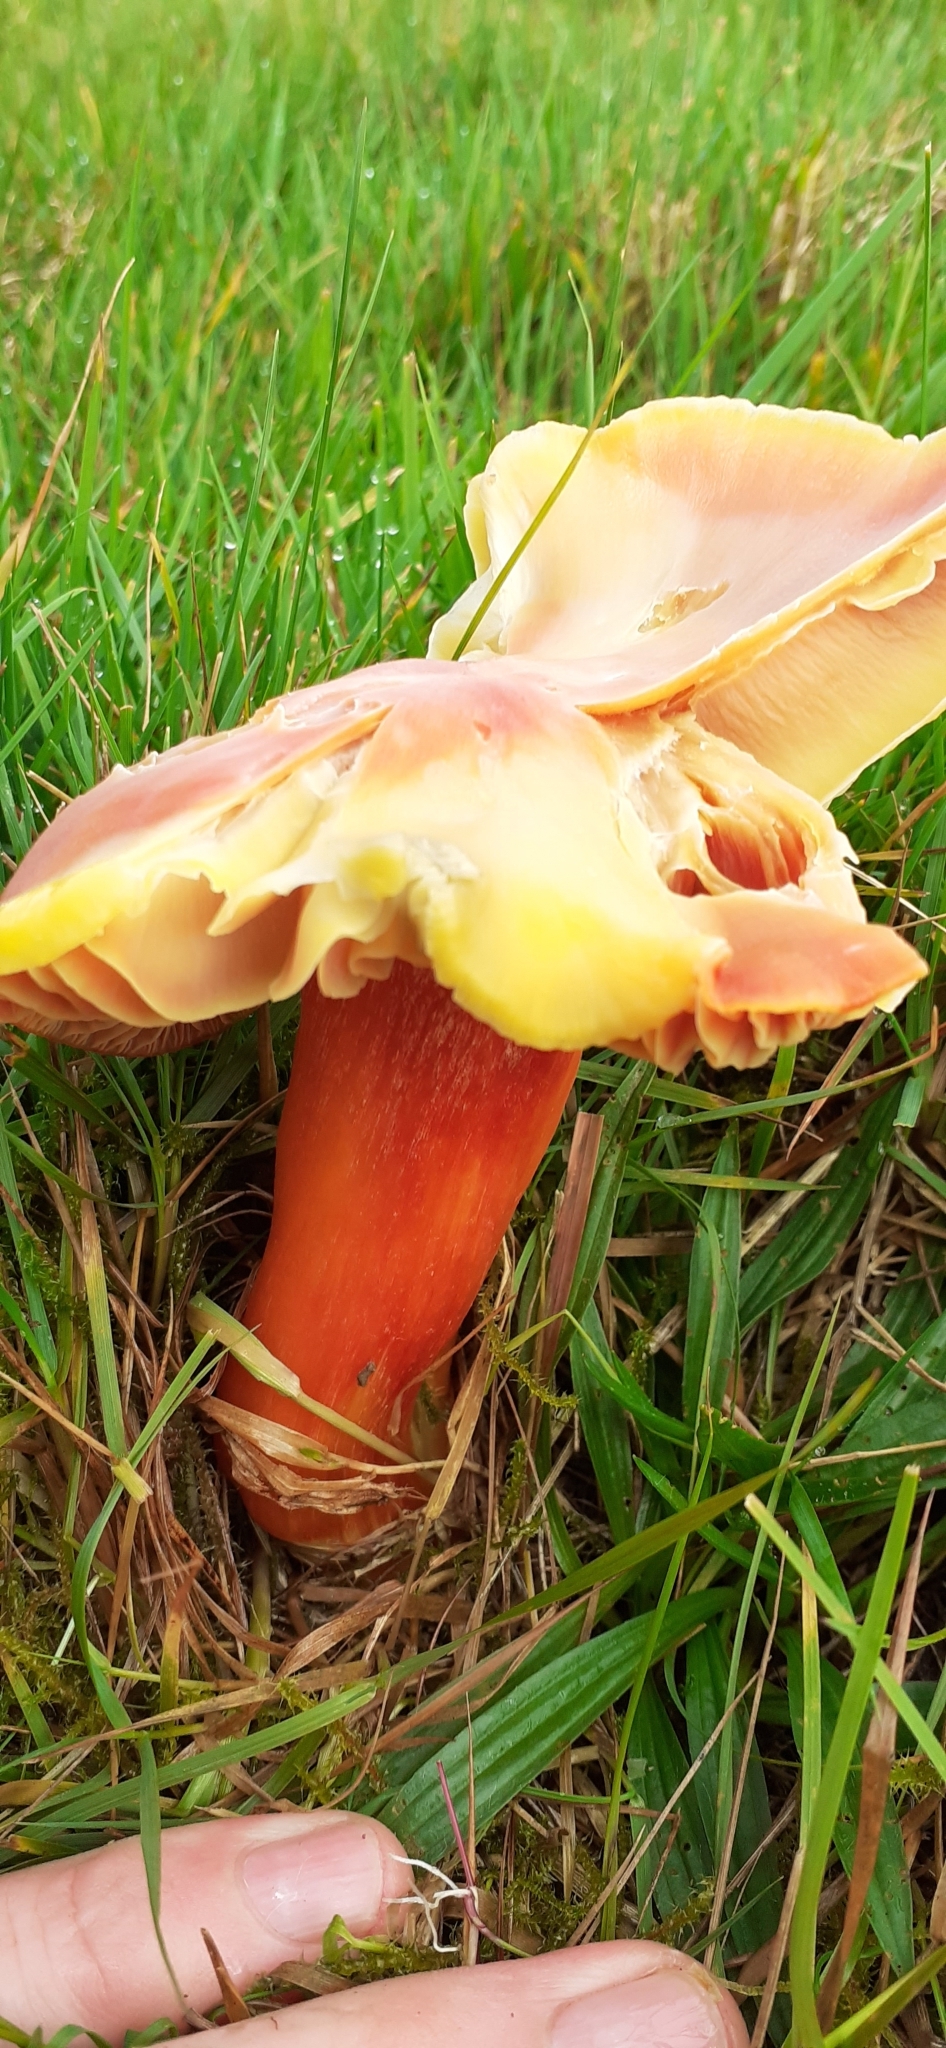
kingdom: Fungi
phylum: Basidiomycota
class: Agaricomycetes
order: Agaricales
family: Hygrophoraceae
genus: Hygrocybe
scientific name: Hygrocybe punicea
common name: Crimson waxcap
